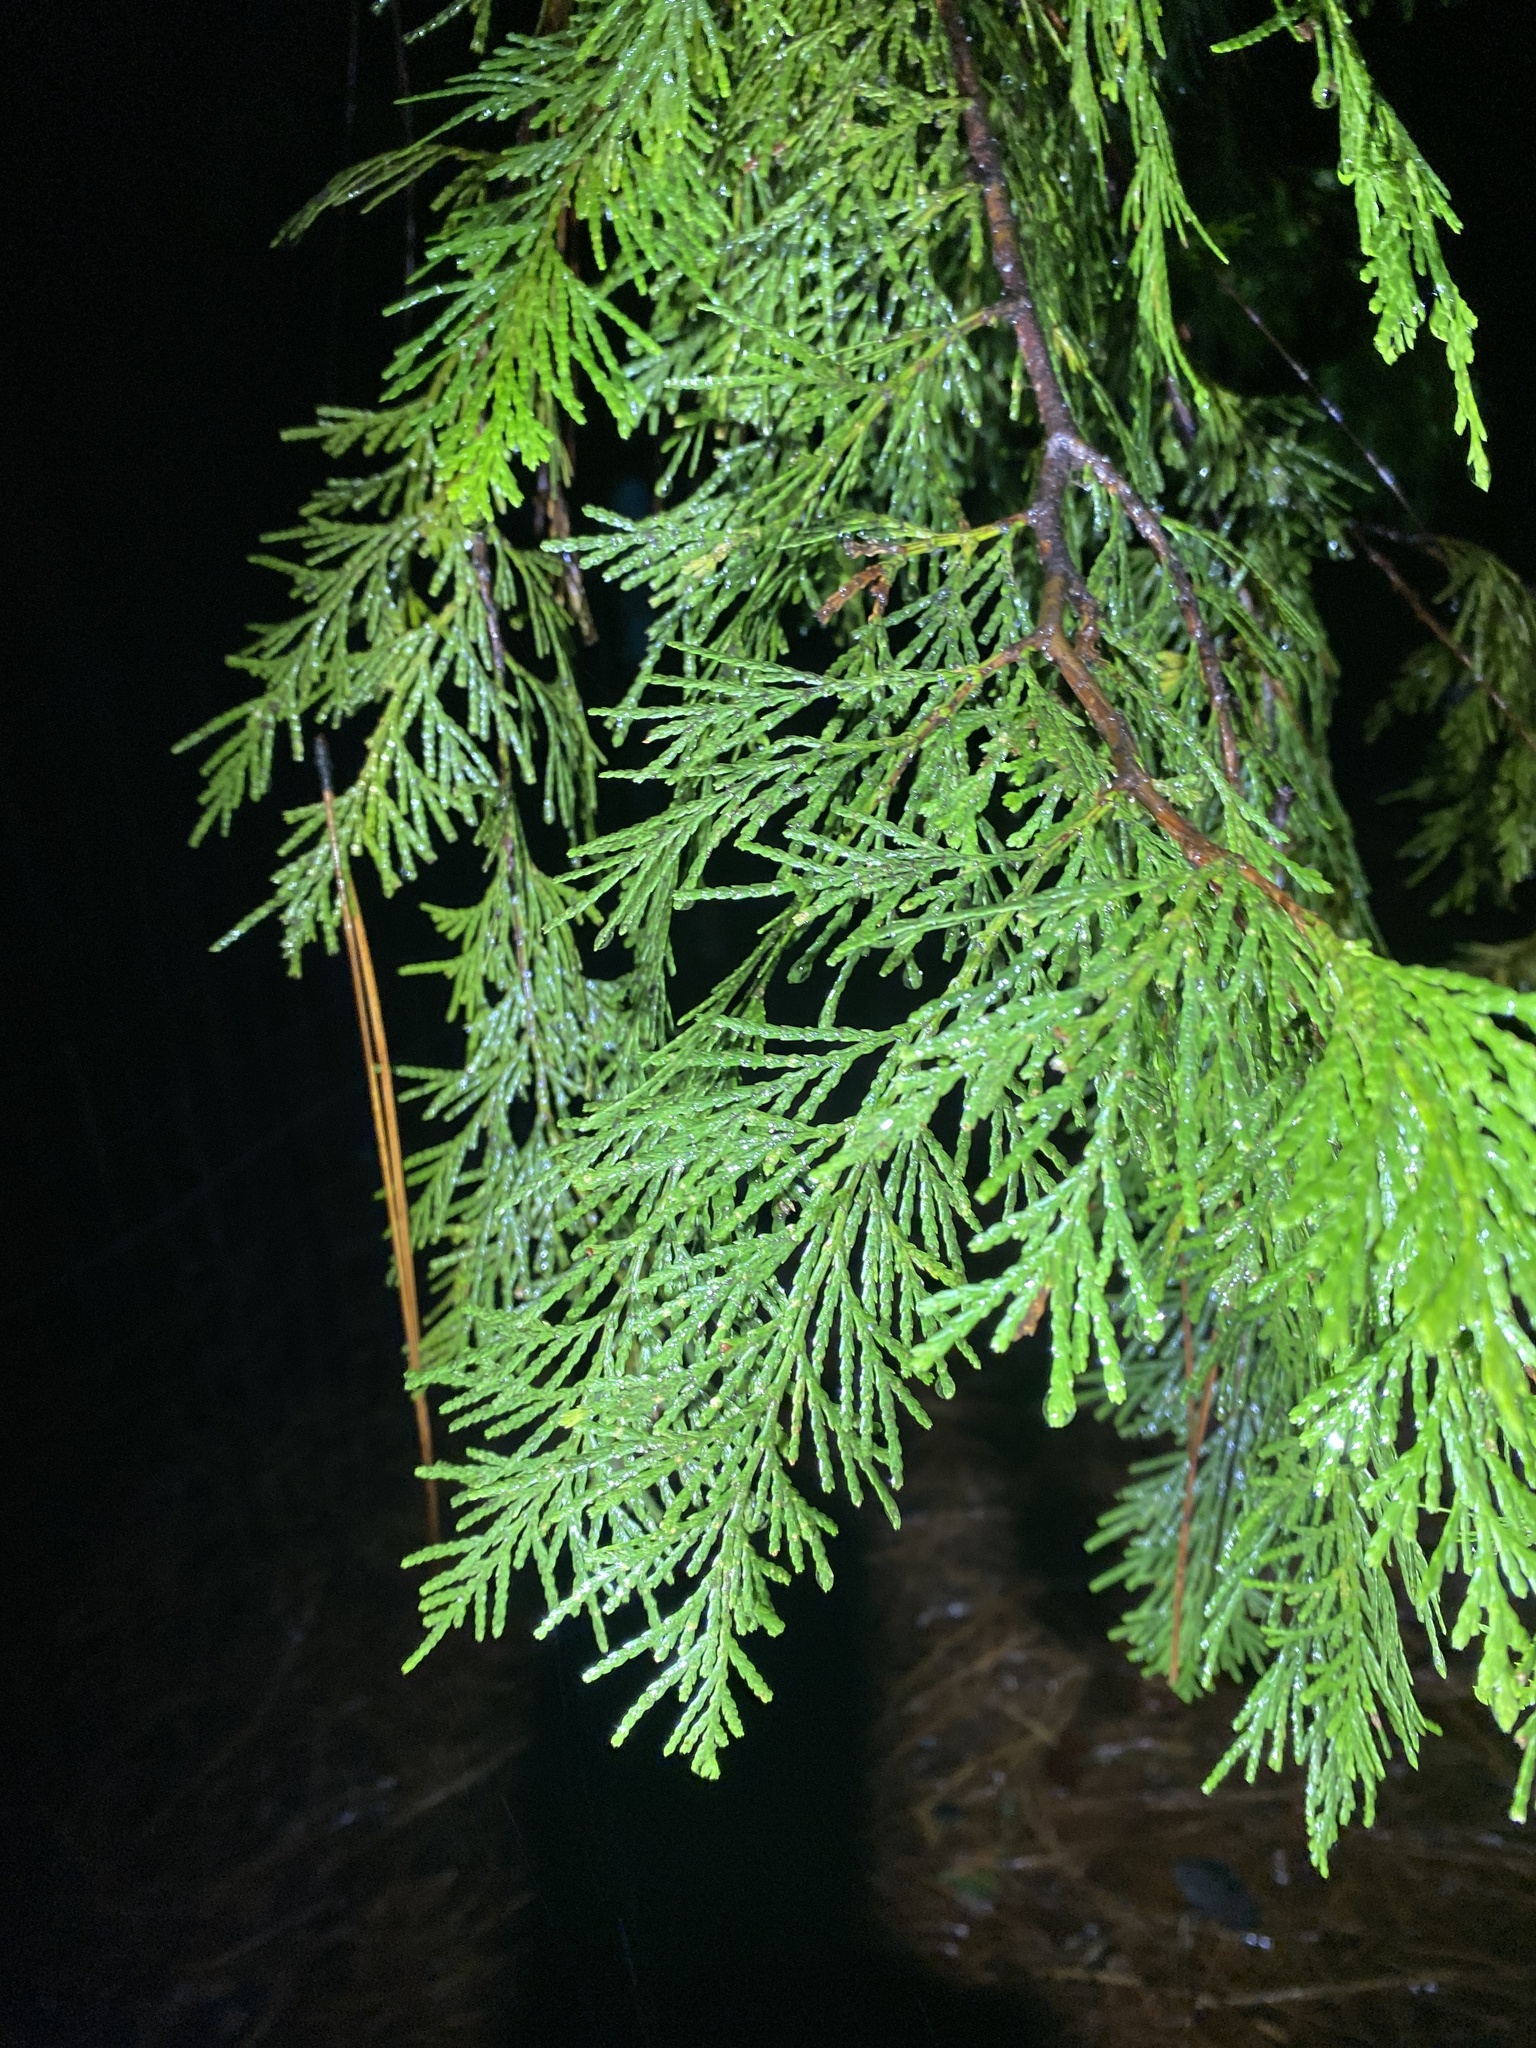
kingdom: Plantae
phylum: Tracheophyta
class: Pinopsida
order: Pinales
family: Cupressaceae
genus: Calocedrus
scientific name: Calocedrus decurrens
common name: Californian incense-cedar
